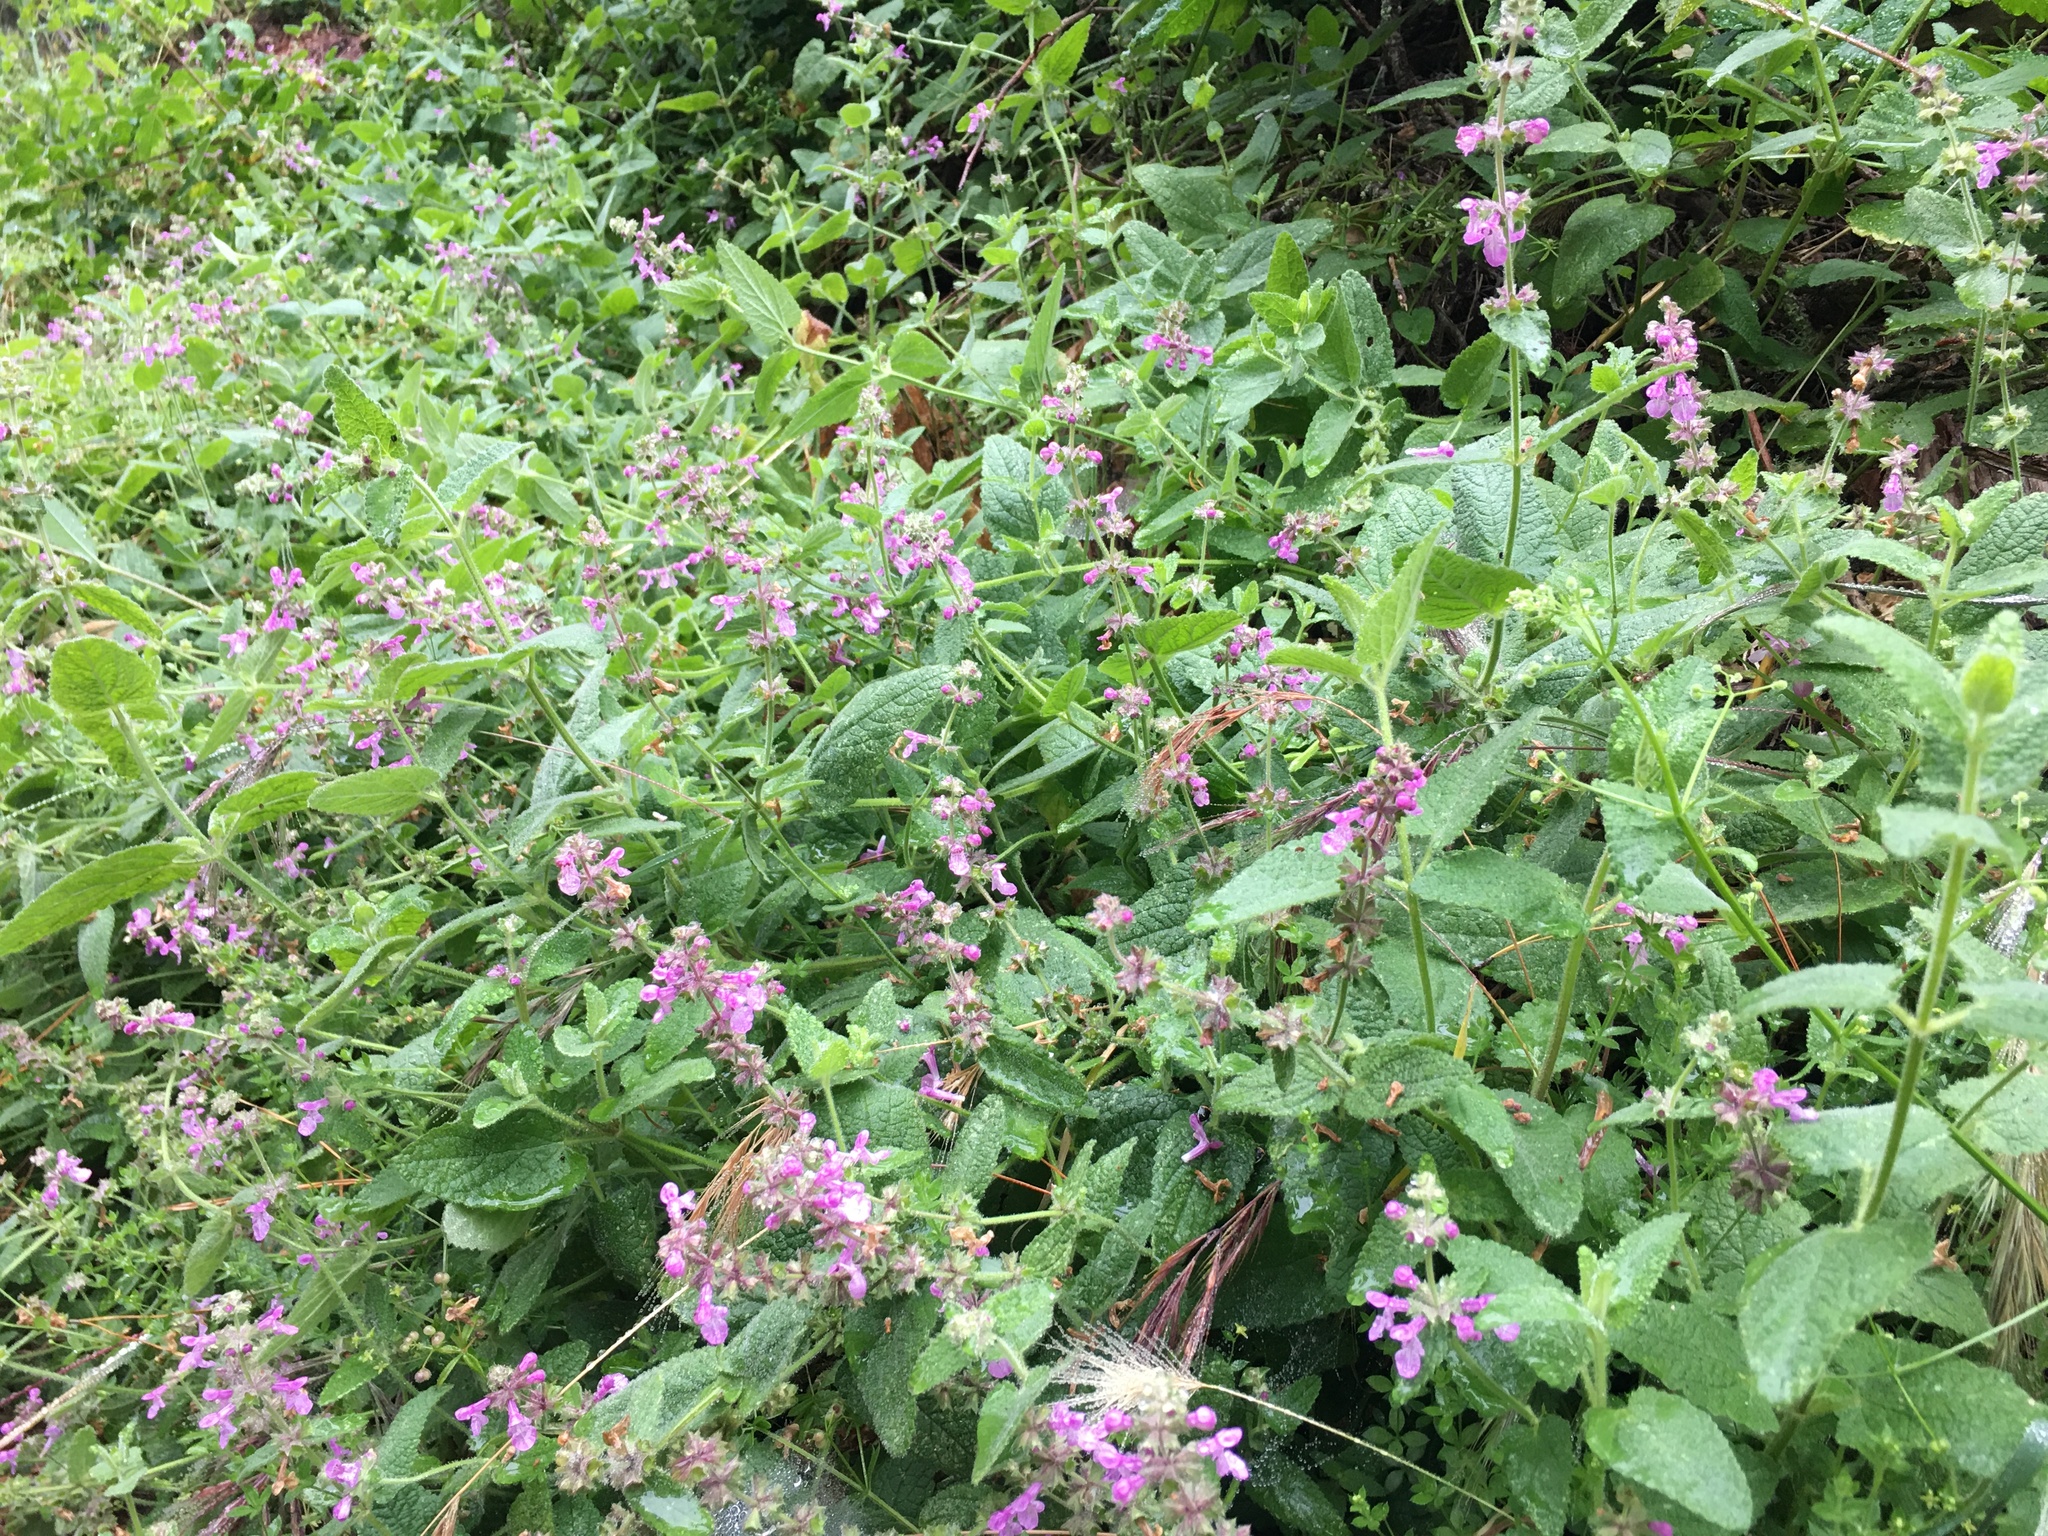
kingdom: Plantae
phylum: Tracheophyta
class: Magnoliopsida
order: Lamiales
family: Lamiaceae
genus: Stachys
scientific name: Stachys bullata
